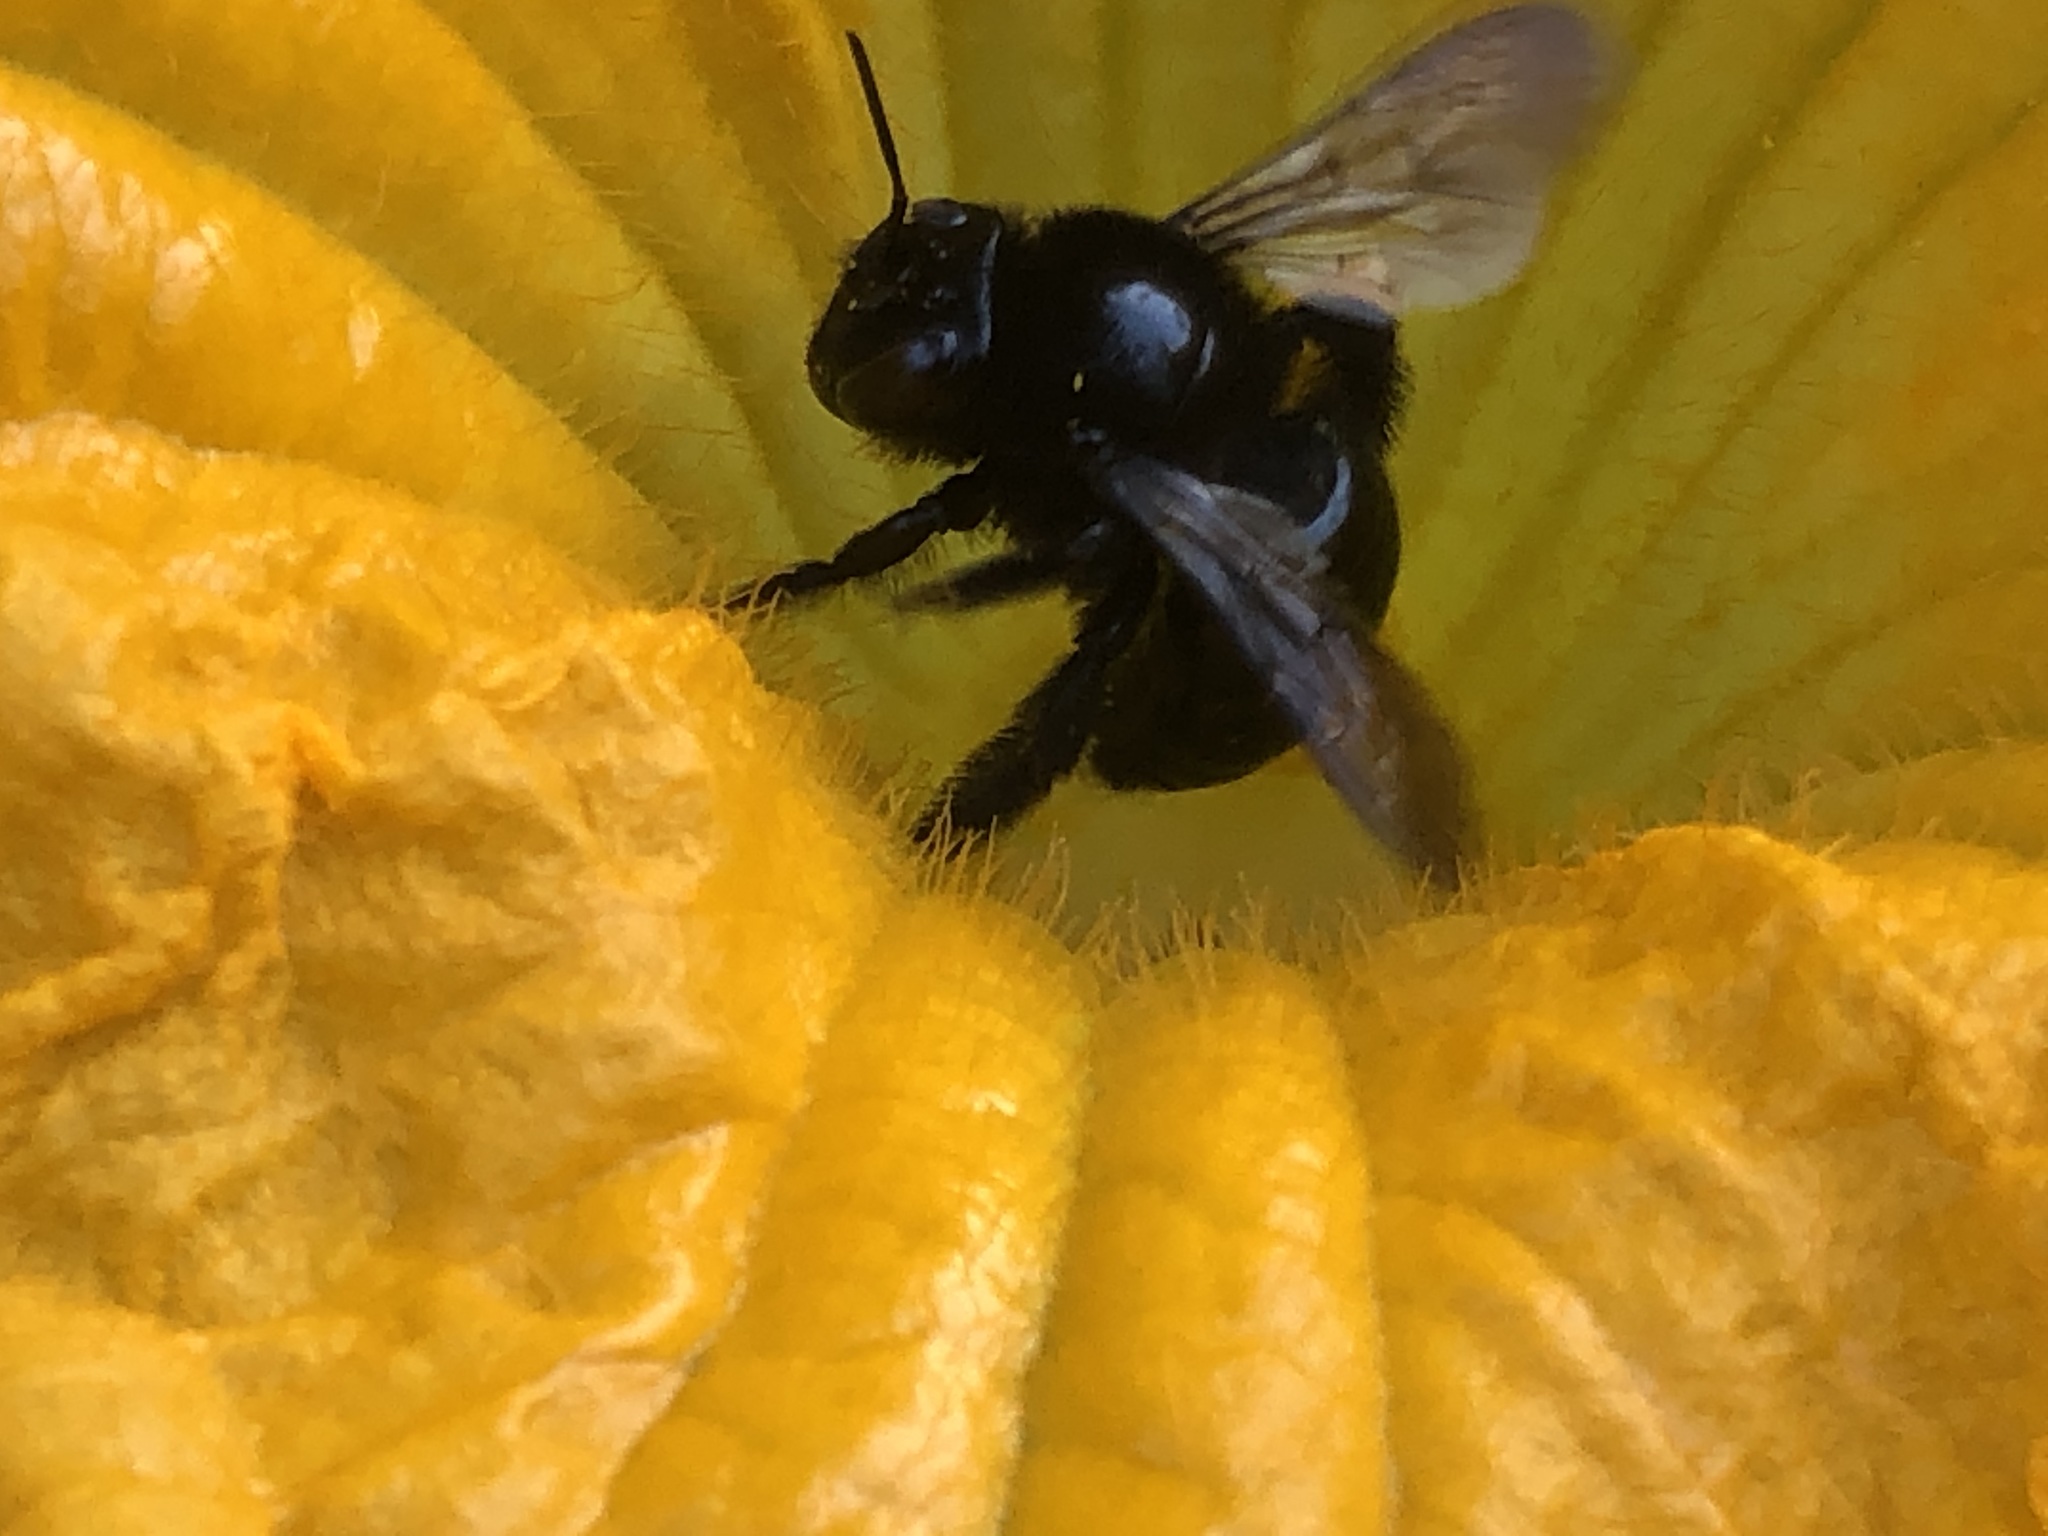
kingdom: Animalia
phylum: Arthropoda
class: Insecta
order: Hymenoptera
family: Apidae
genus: Xylocopa
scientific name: Xylocopa tabaniformis
